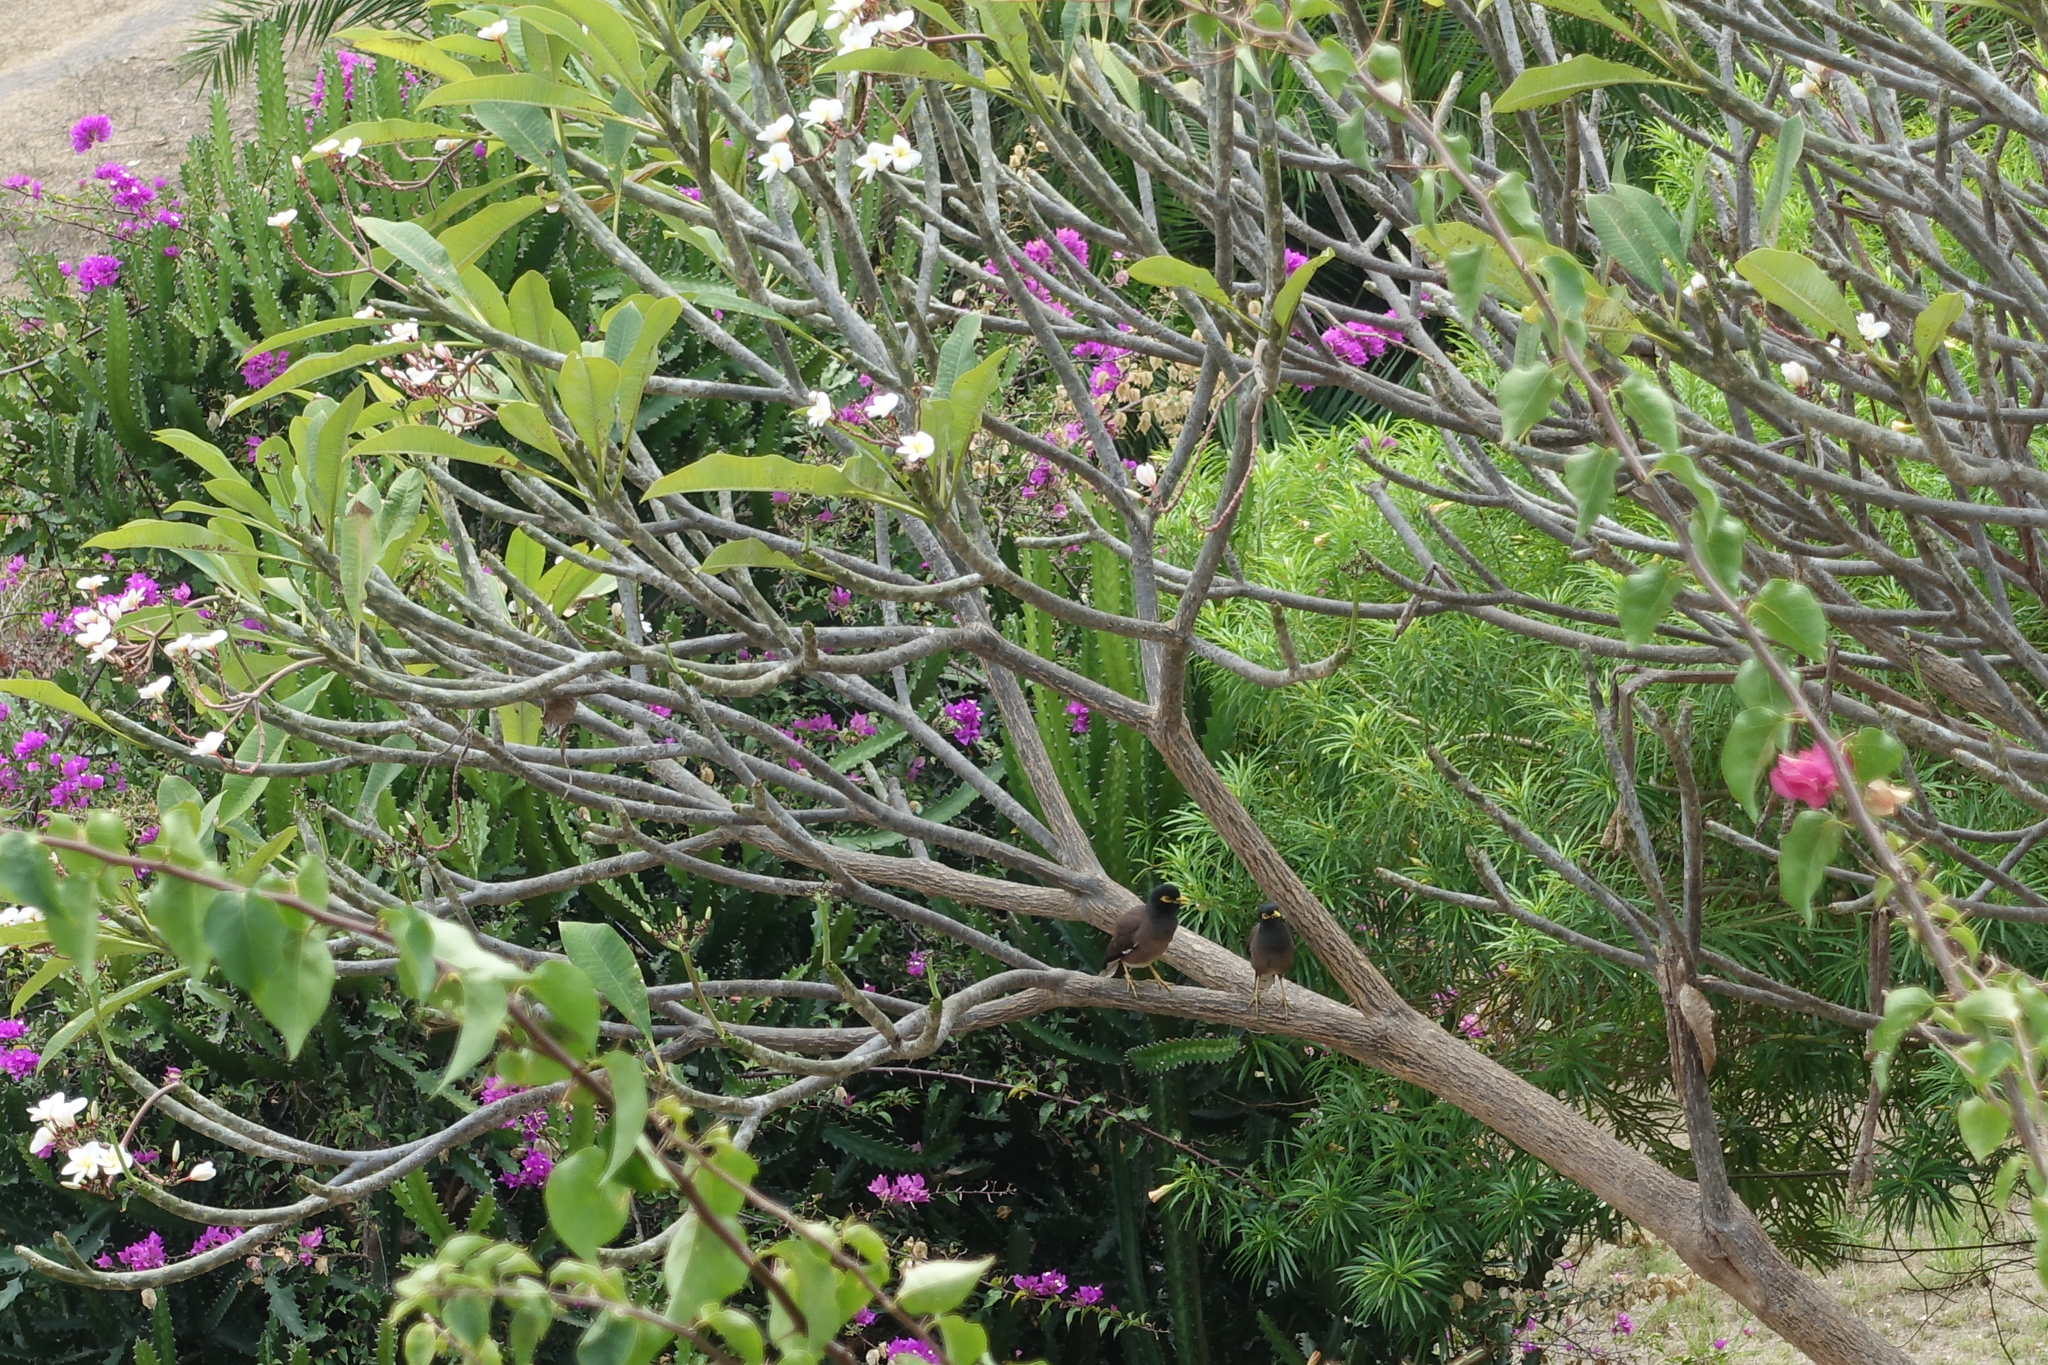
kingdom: Animalia
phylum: Chordata
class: Aves
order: Passeriformes
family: Sturnidae
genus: Acridotheres
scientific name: Acridotheres tristis
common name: Common myna
